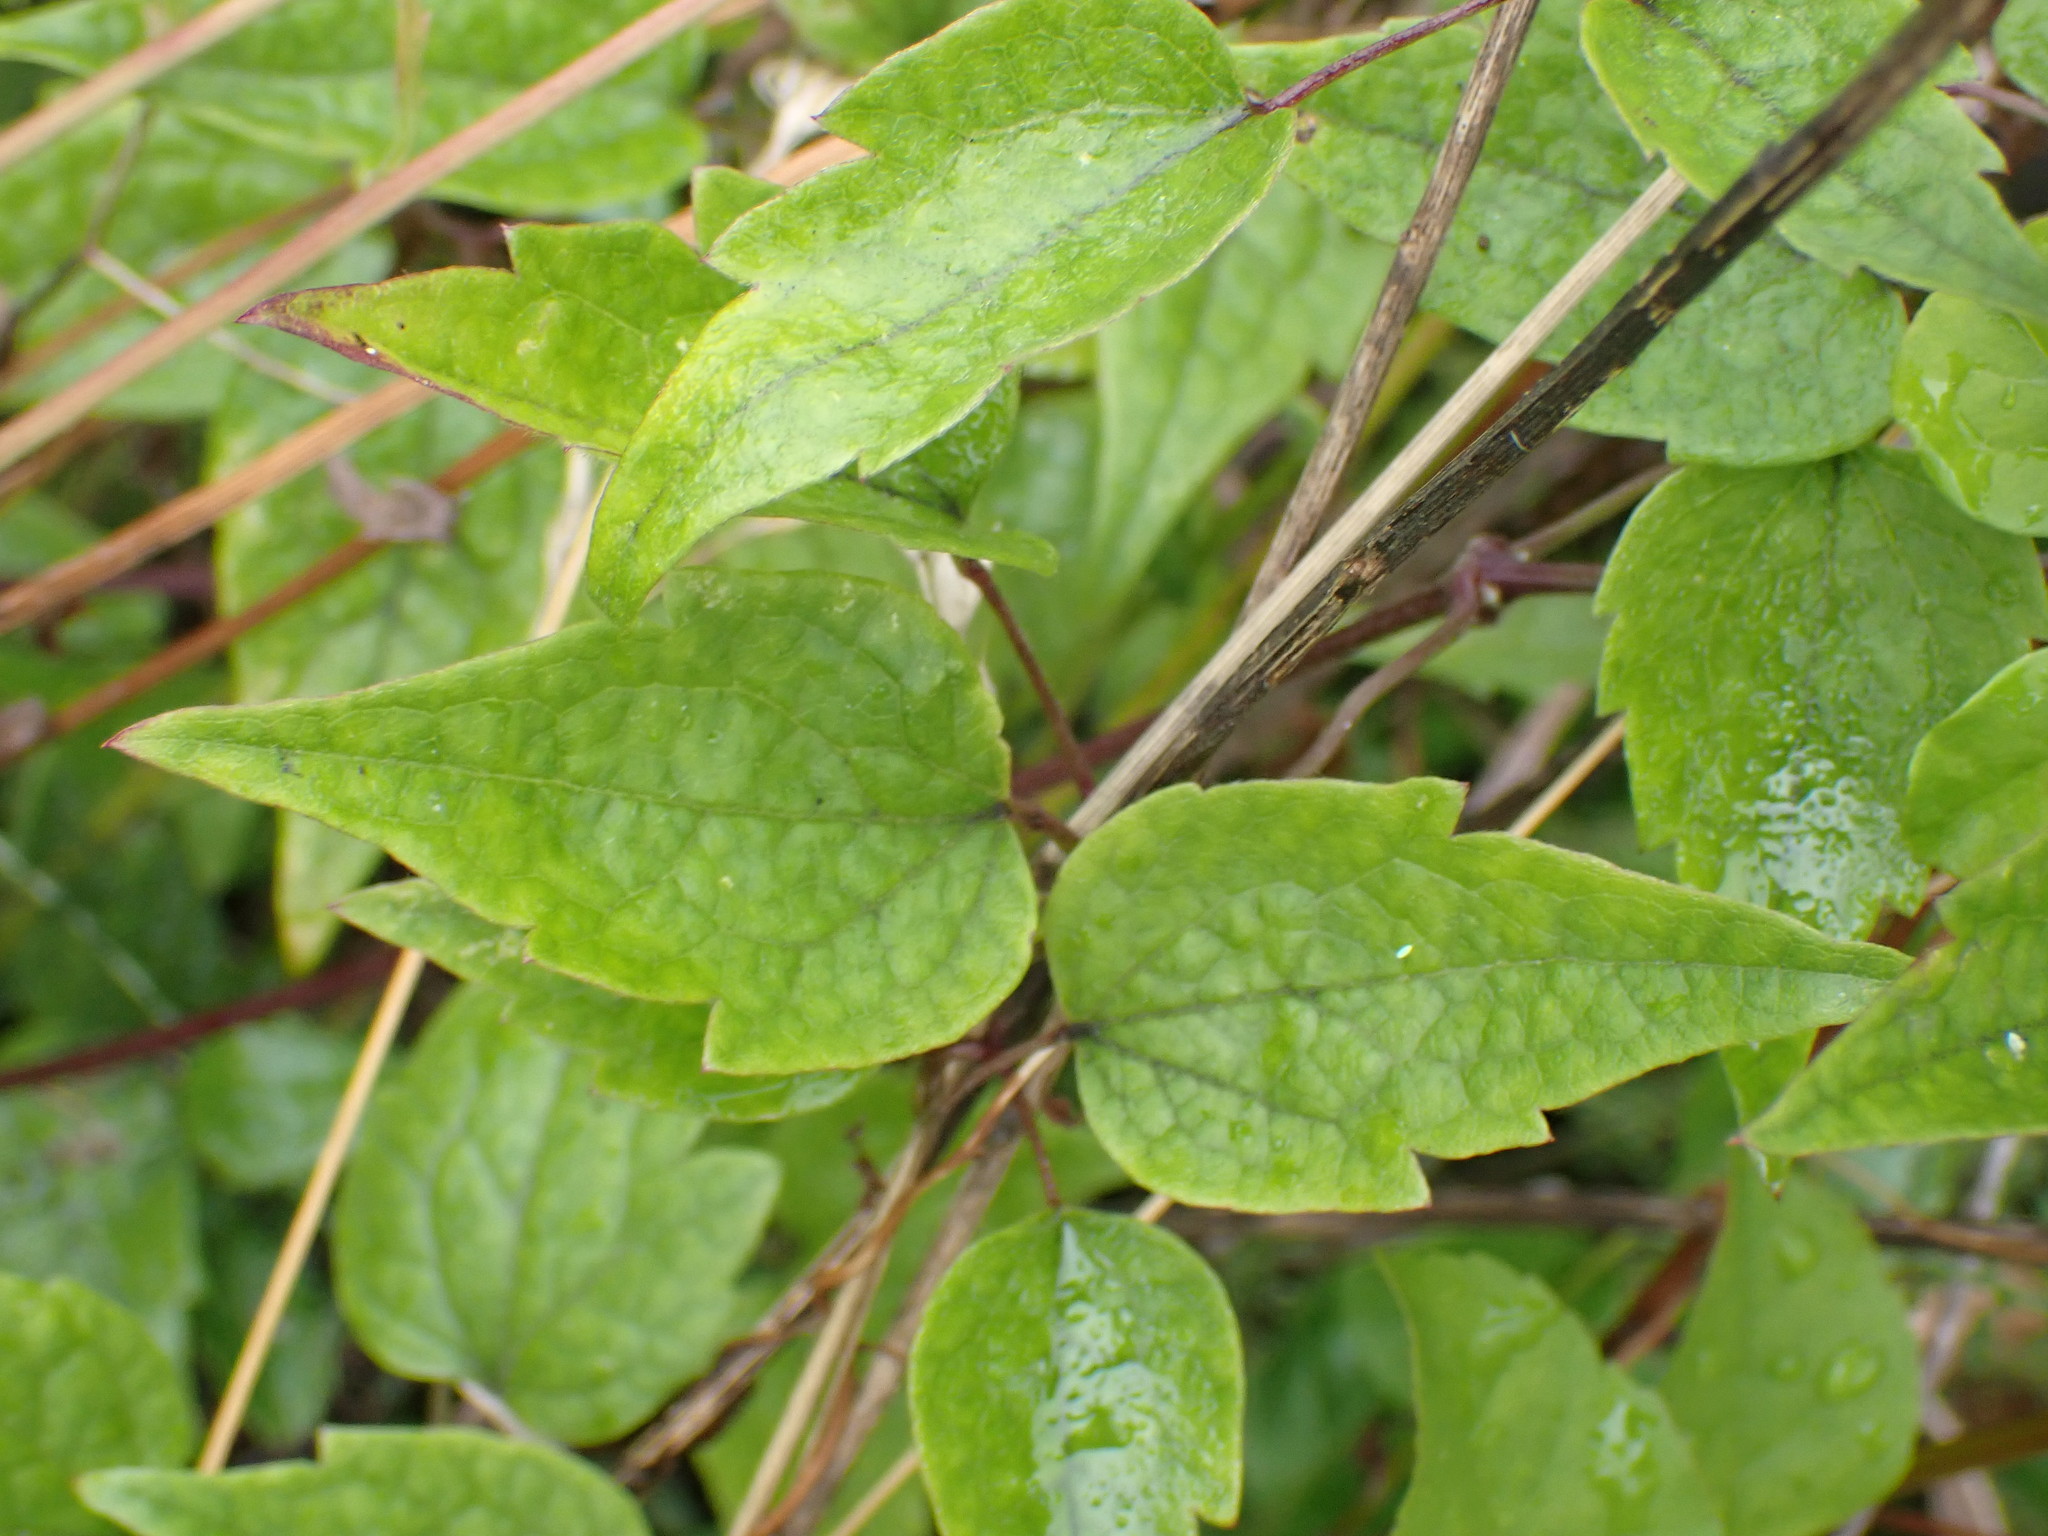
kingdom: Plantae
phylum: Tracheophyta
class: Magnoliopsida
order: Ranunculales
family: Ranunculaceae
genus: Clematis
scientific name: Clematis vitalba
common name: Evergreen clematis
